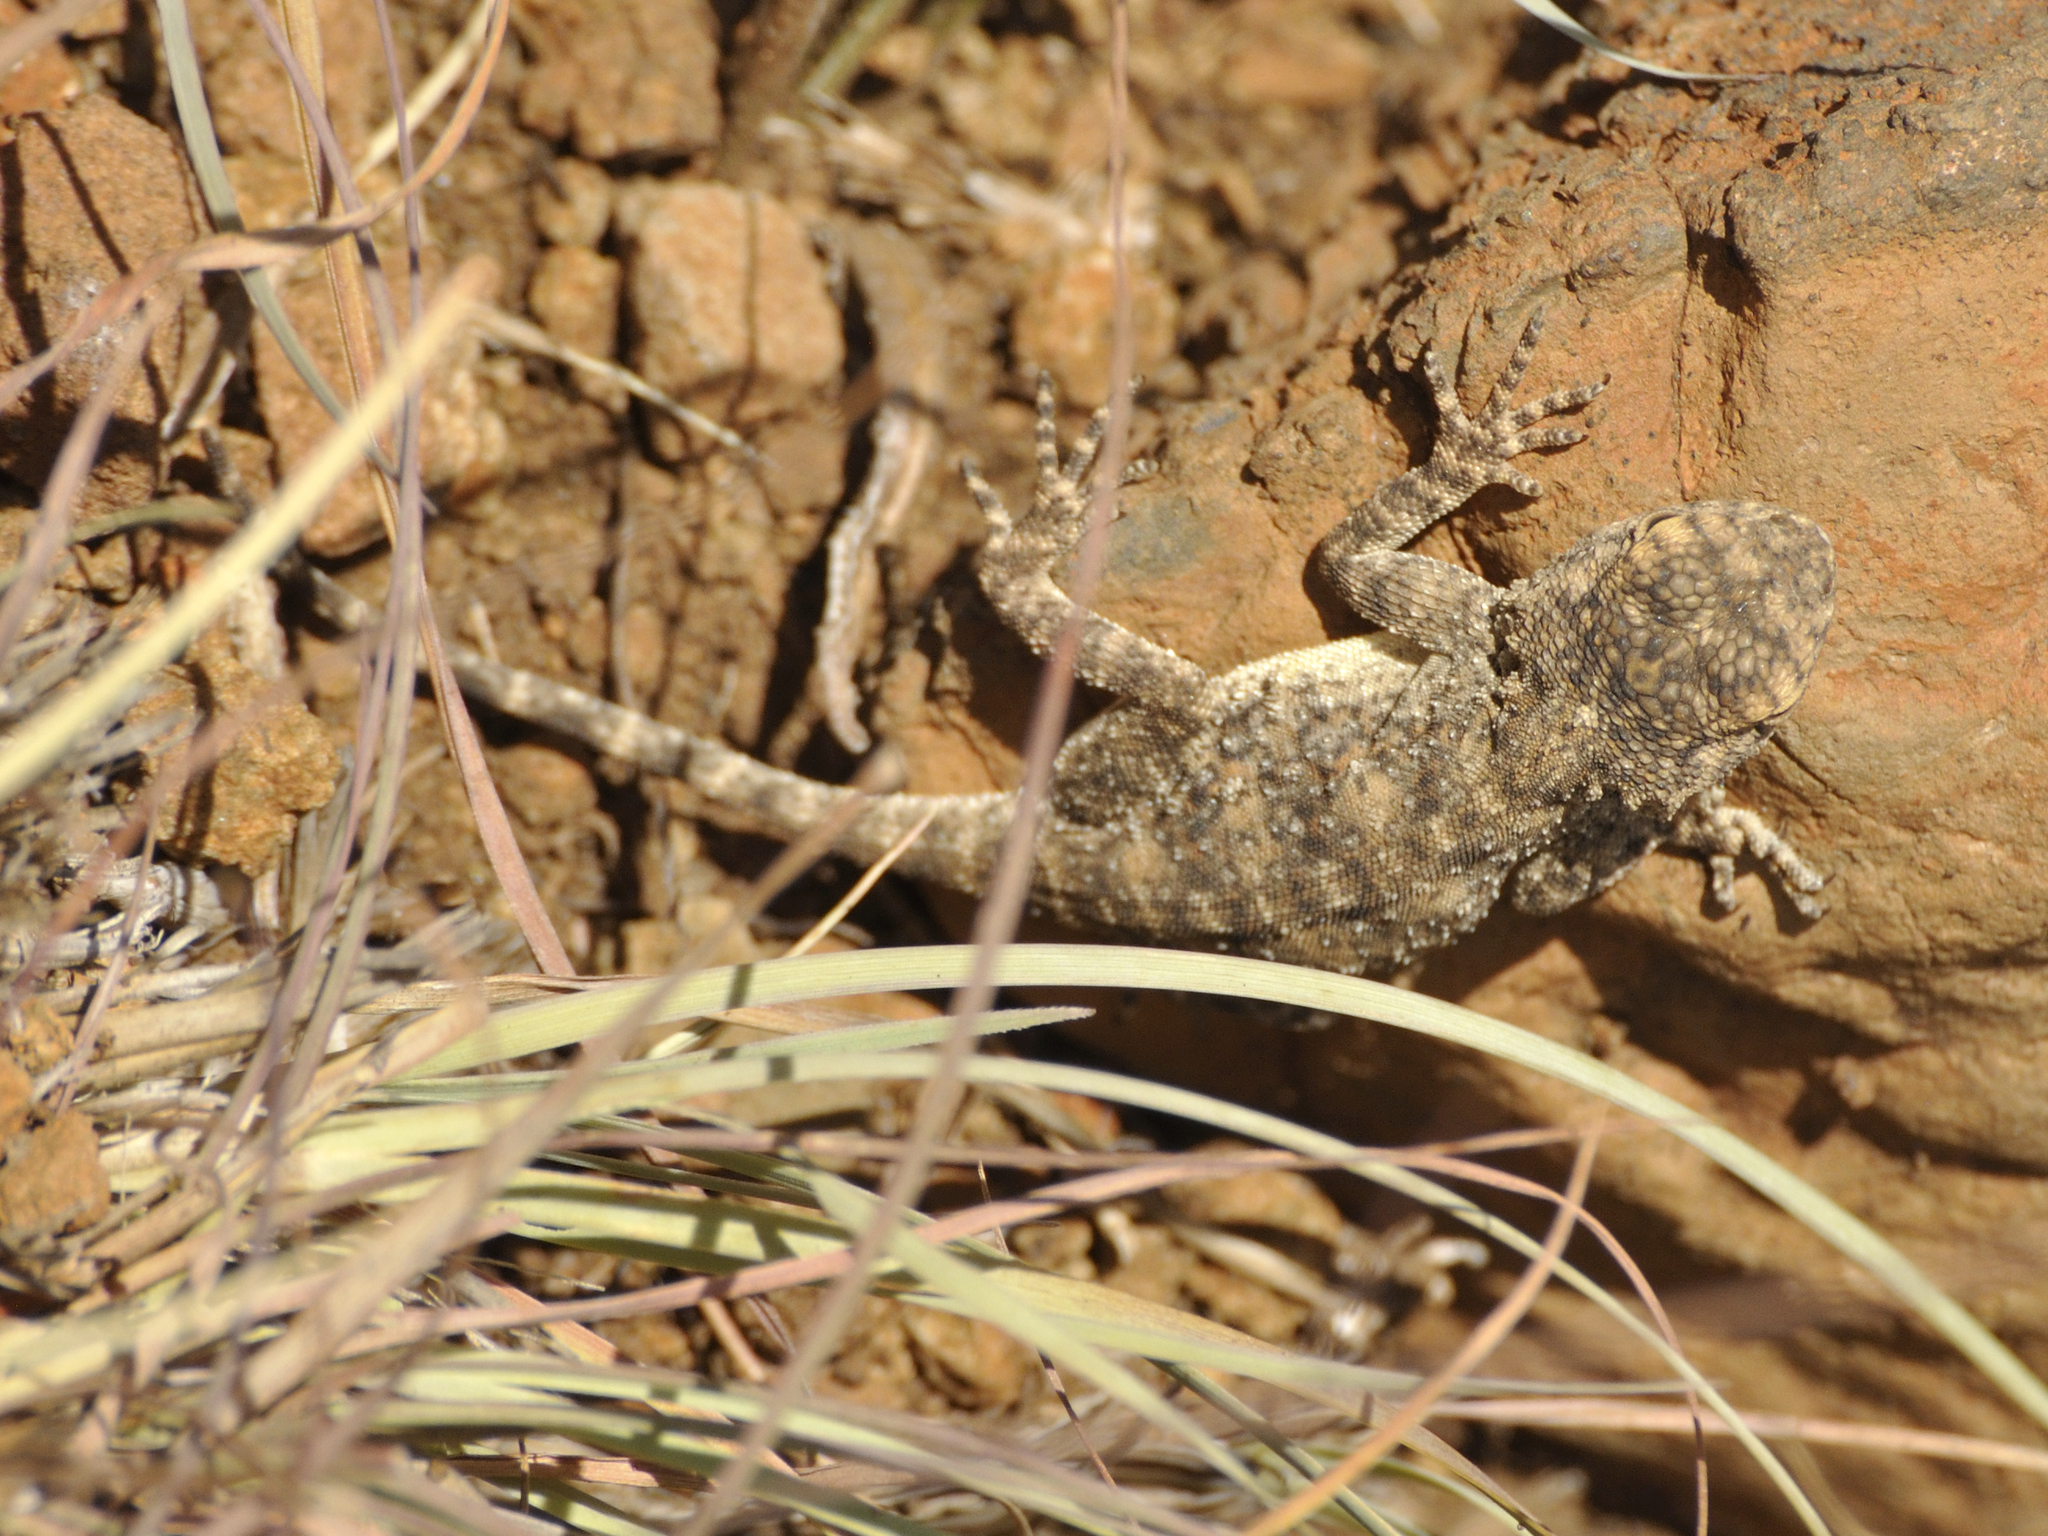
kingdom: Animalia
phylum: Chordata
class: Squamata
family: Agamidae
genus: Agama
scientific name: Agama atra
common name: Southern african rock agama
